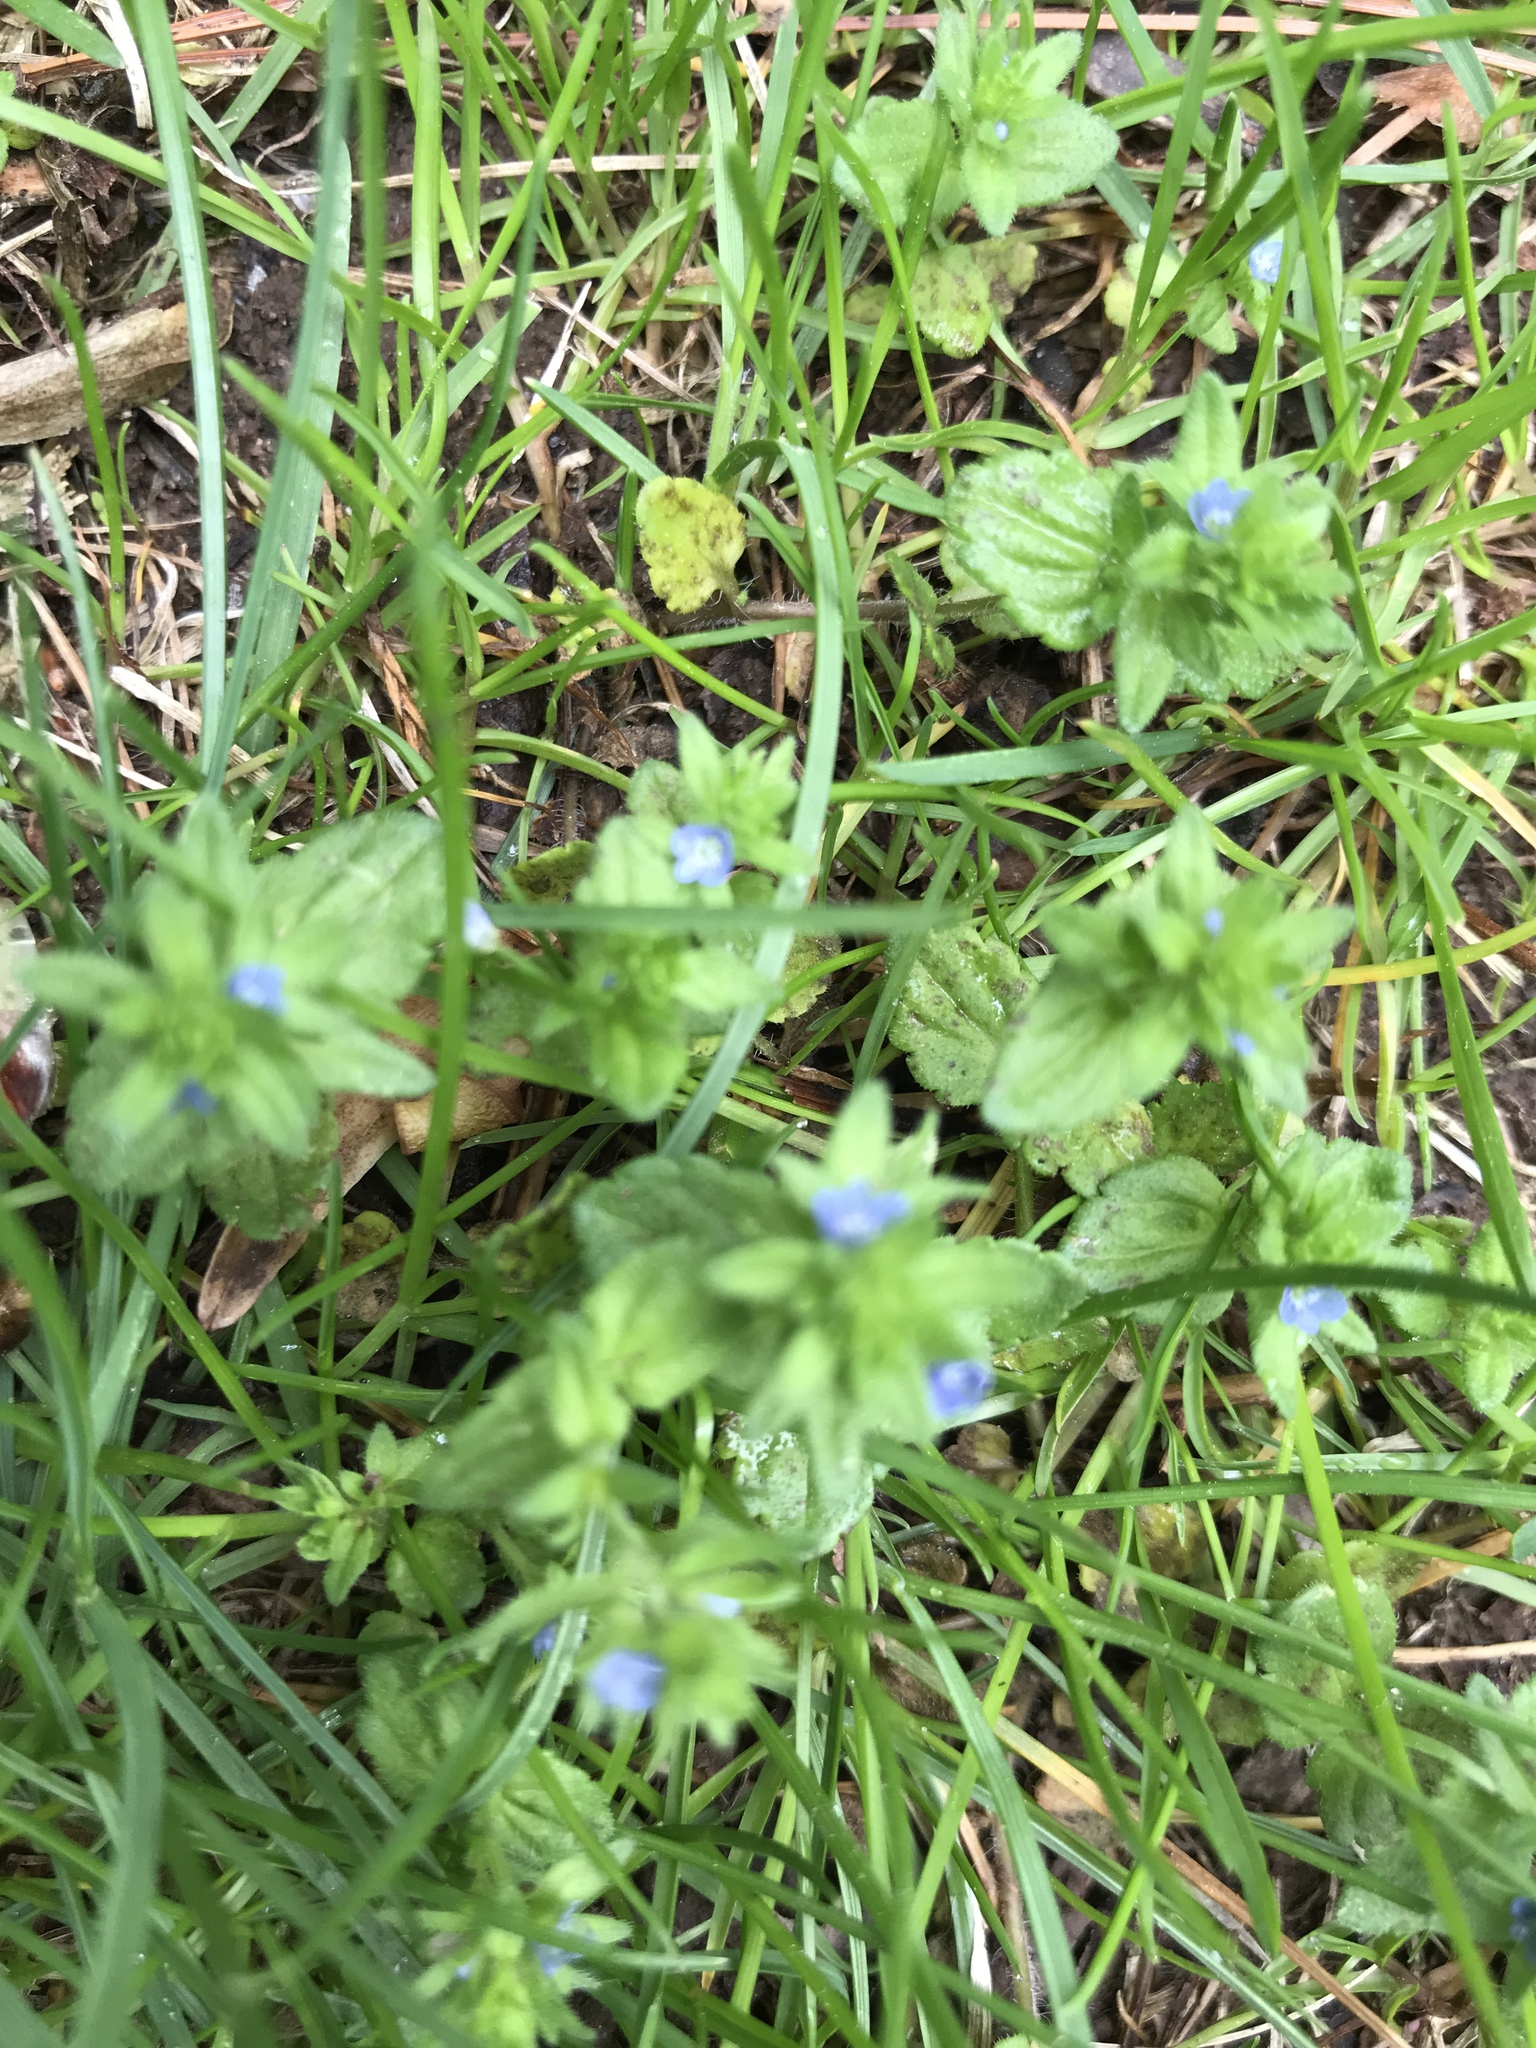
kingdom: Plantae
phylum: Tracheophyta
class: Magnoliopsida
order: Lamiales
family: Plantaginaceae
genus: Veronica
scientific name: Veronica arvensis
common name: Corn speedwell
